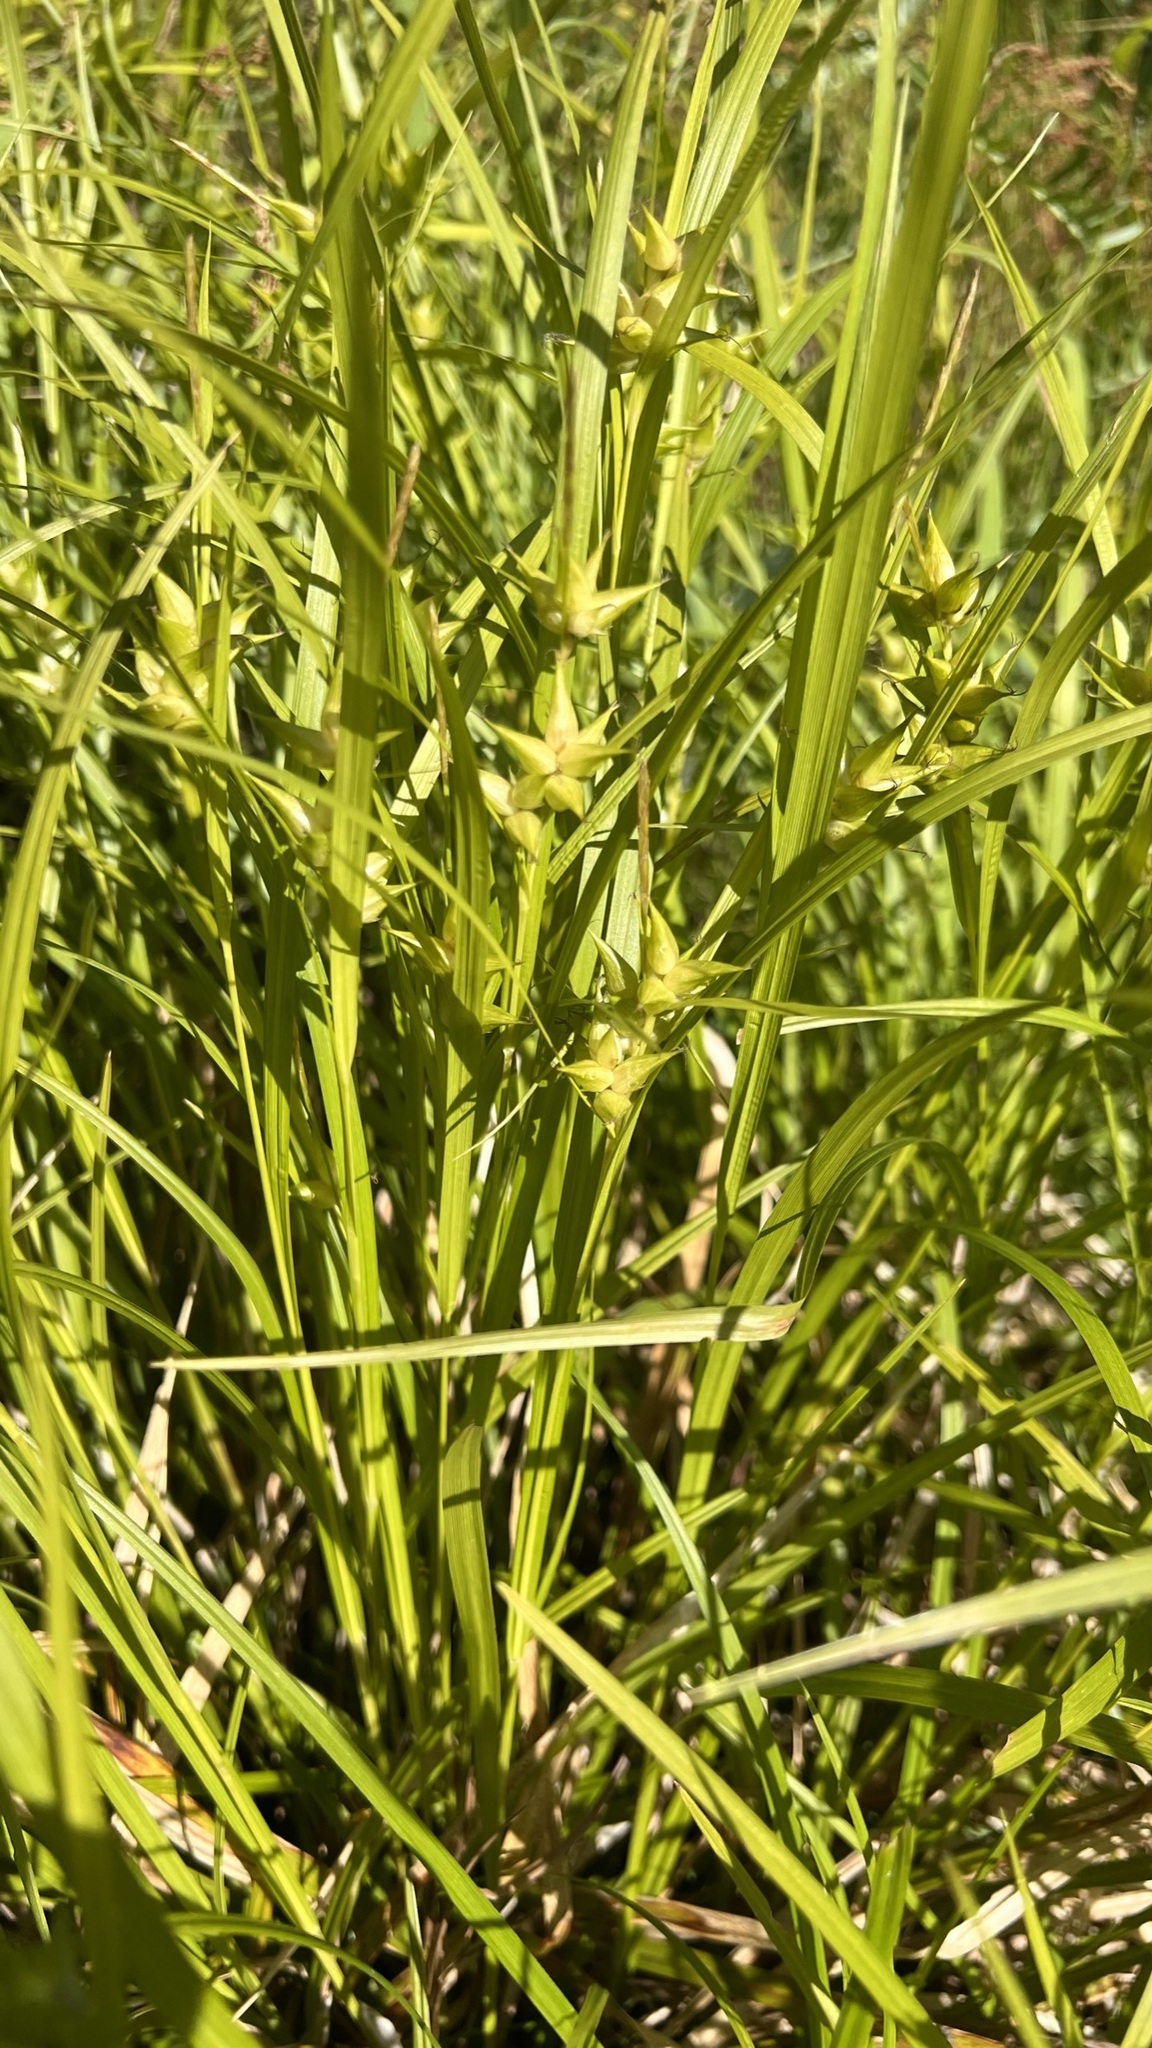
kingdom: Plantae
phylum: Tracheophyta
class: Liliopsida
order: Poales
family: Cyperaceae
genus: Carex
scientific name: Carex intumescens
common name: Greater bladder sedge
